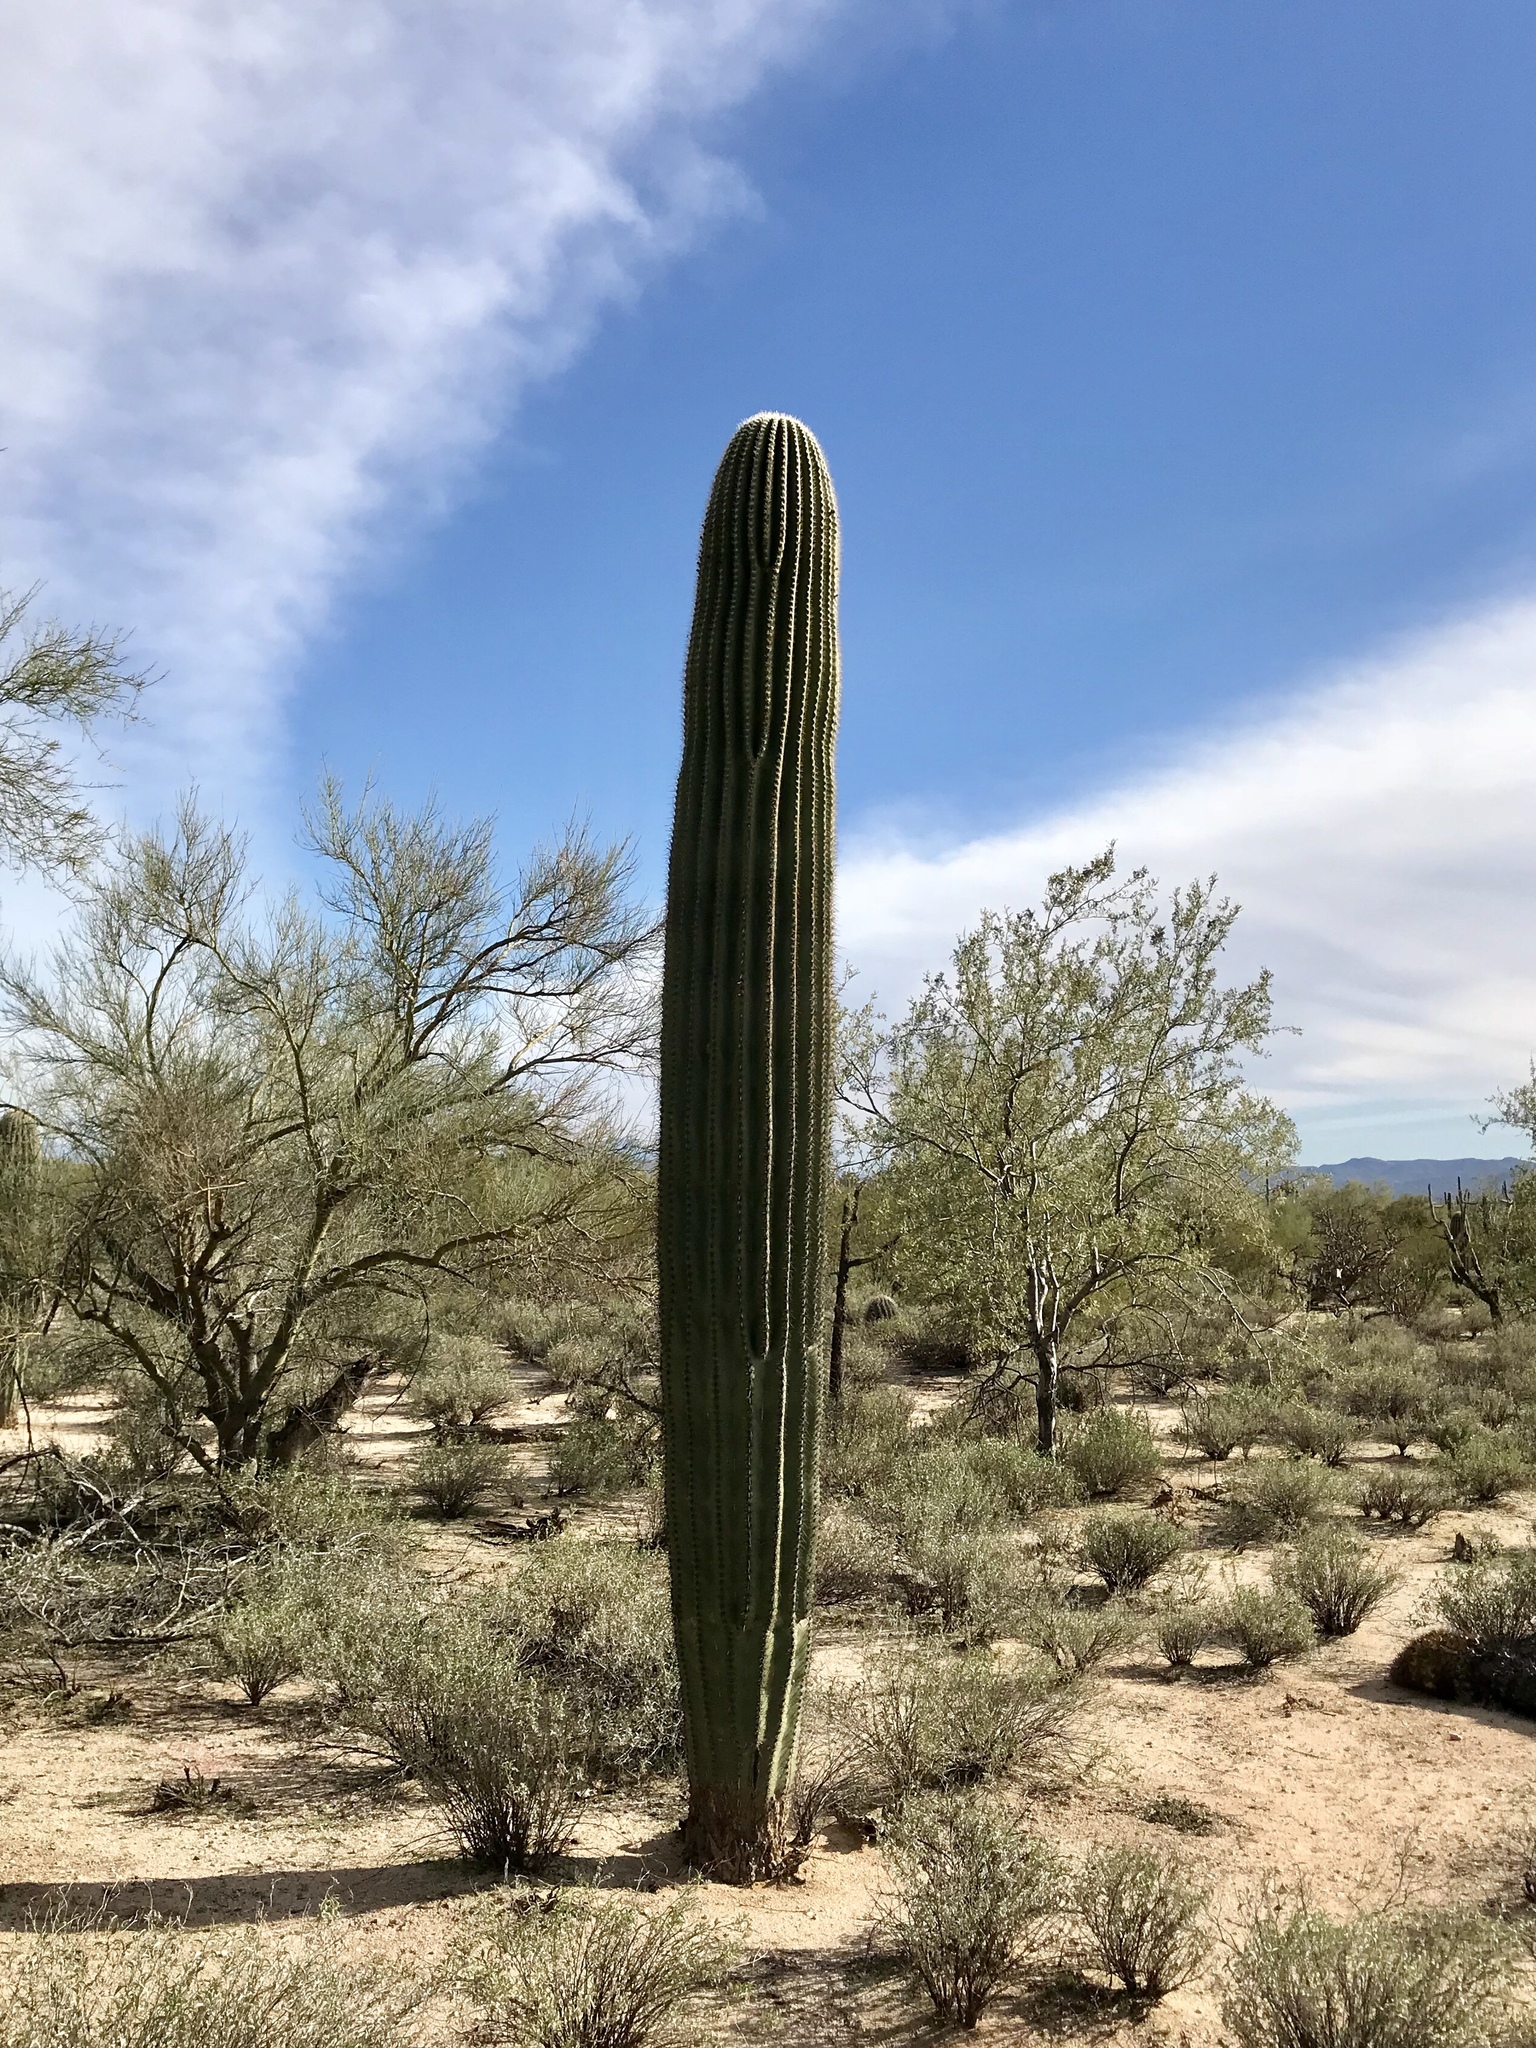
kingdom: Plantae
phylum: Tracheophyta
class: Magnoliopsida
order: Caryophyllales
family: Cactaceae
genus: Carnegiea
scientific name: Carnegiea gigantea
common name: Saguaro
